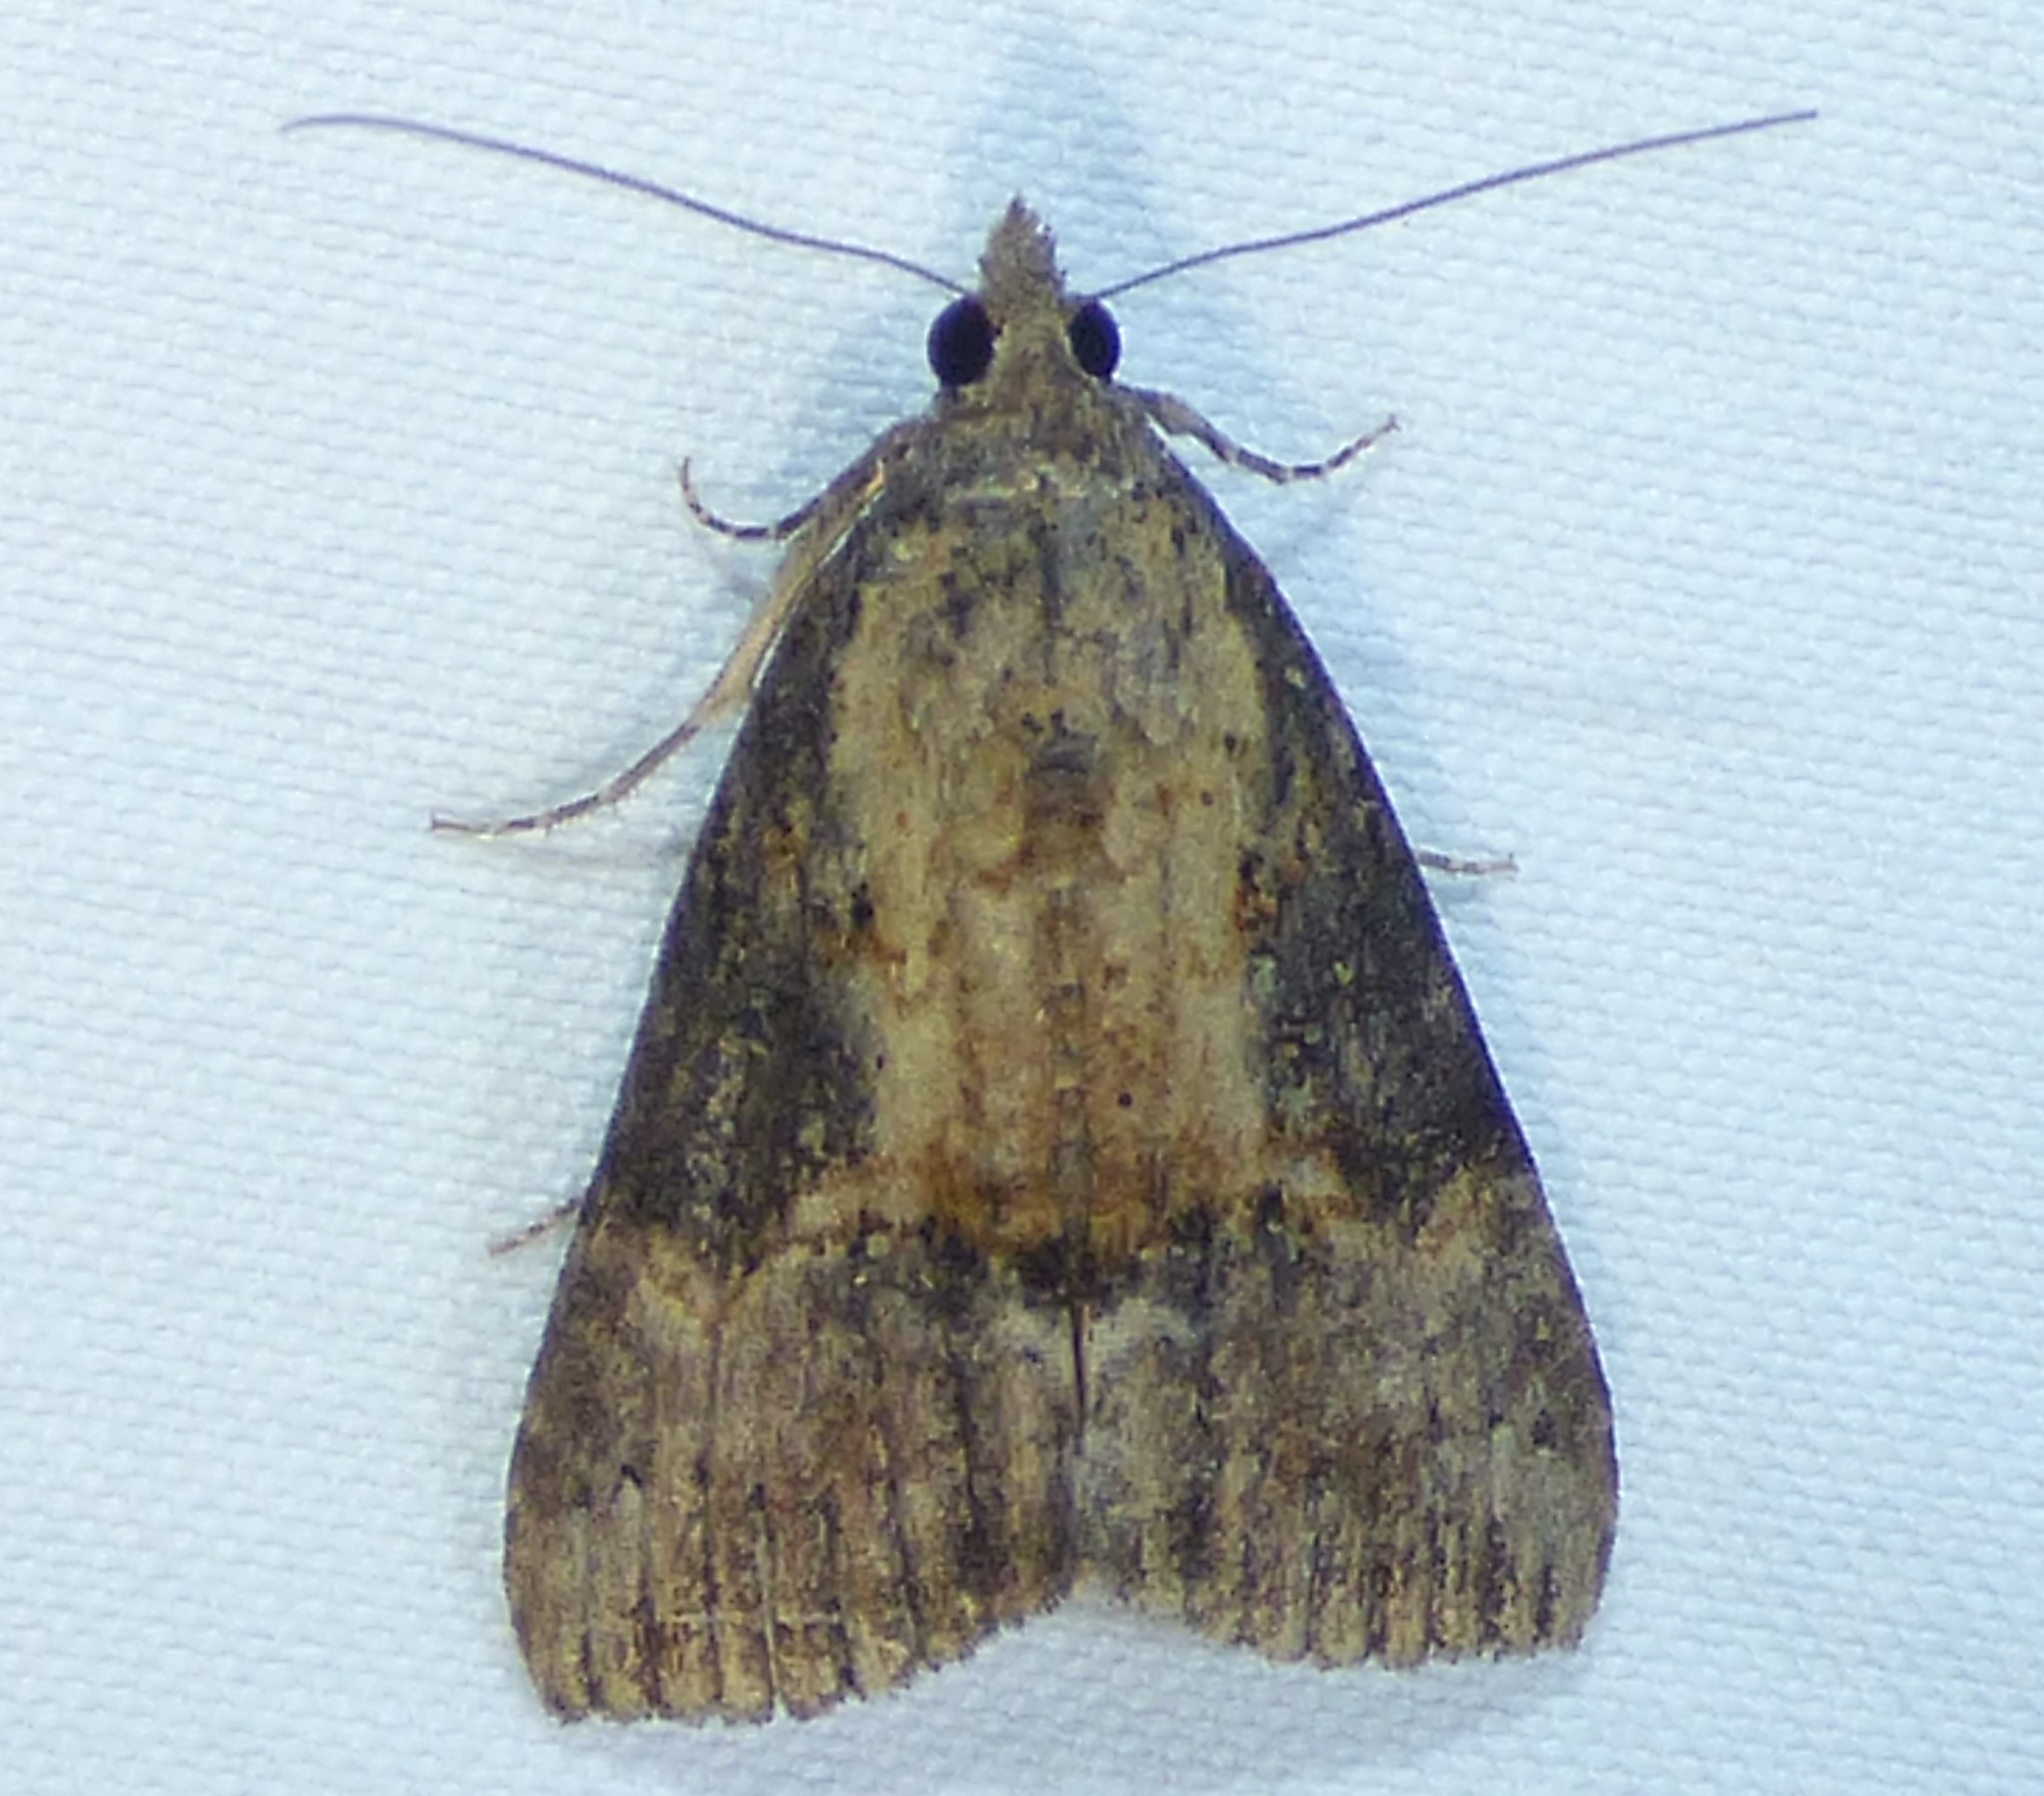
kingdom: Animalia
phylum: Arthropoda
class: Insecta
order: Lepidoptera
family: Erebidae
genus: Hypena
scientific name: Hypena scabra
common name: Green cloverworm
